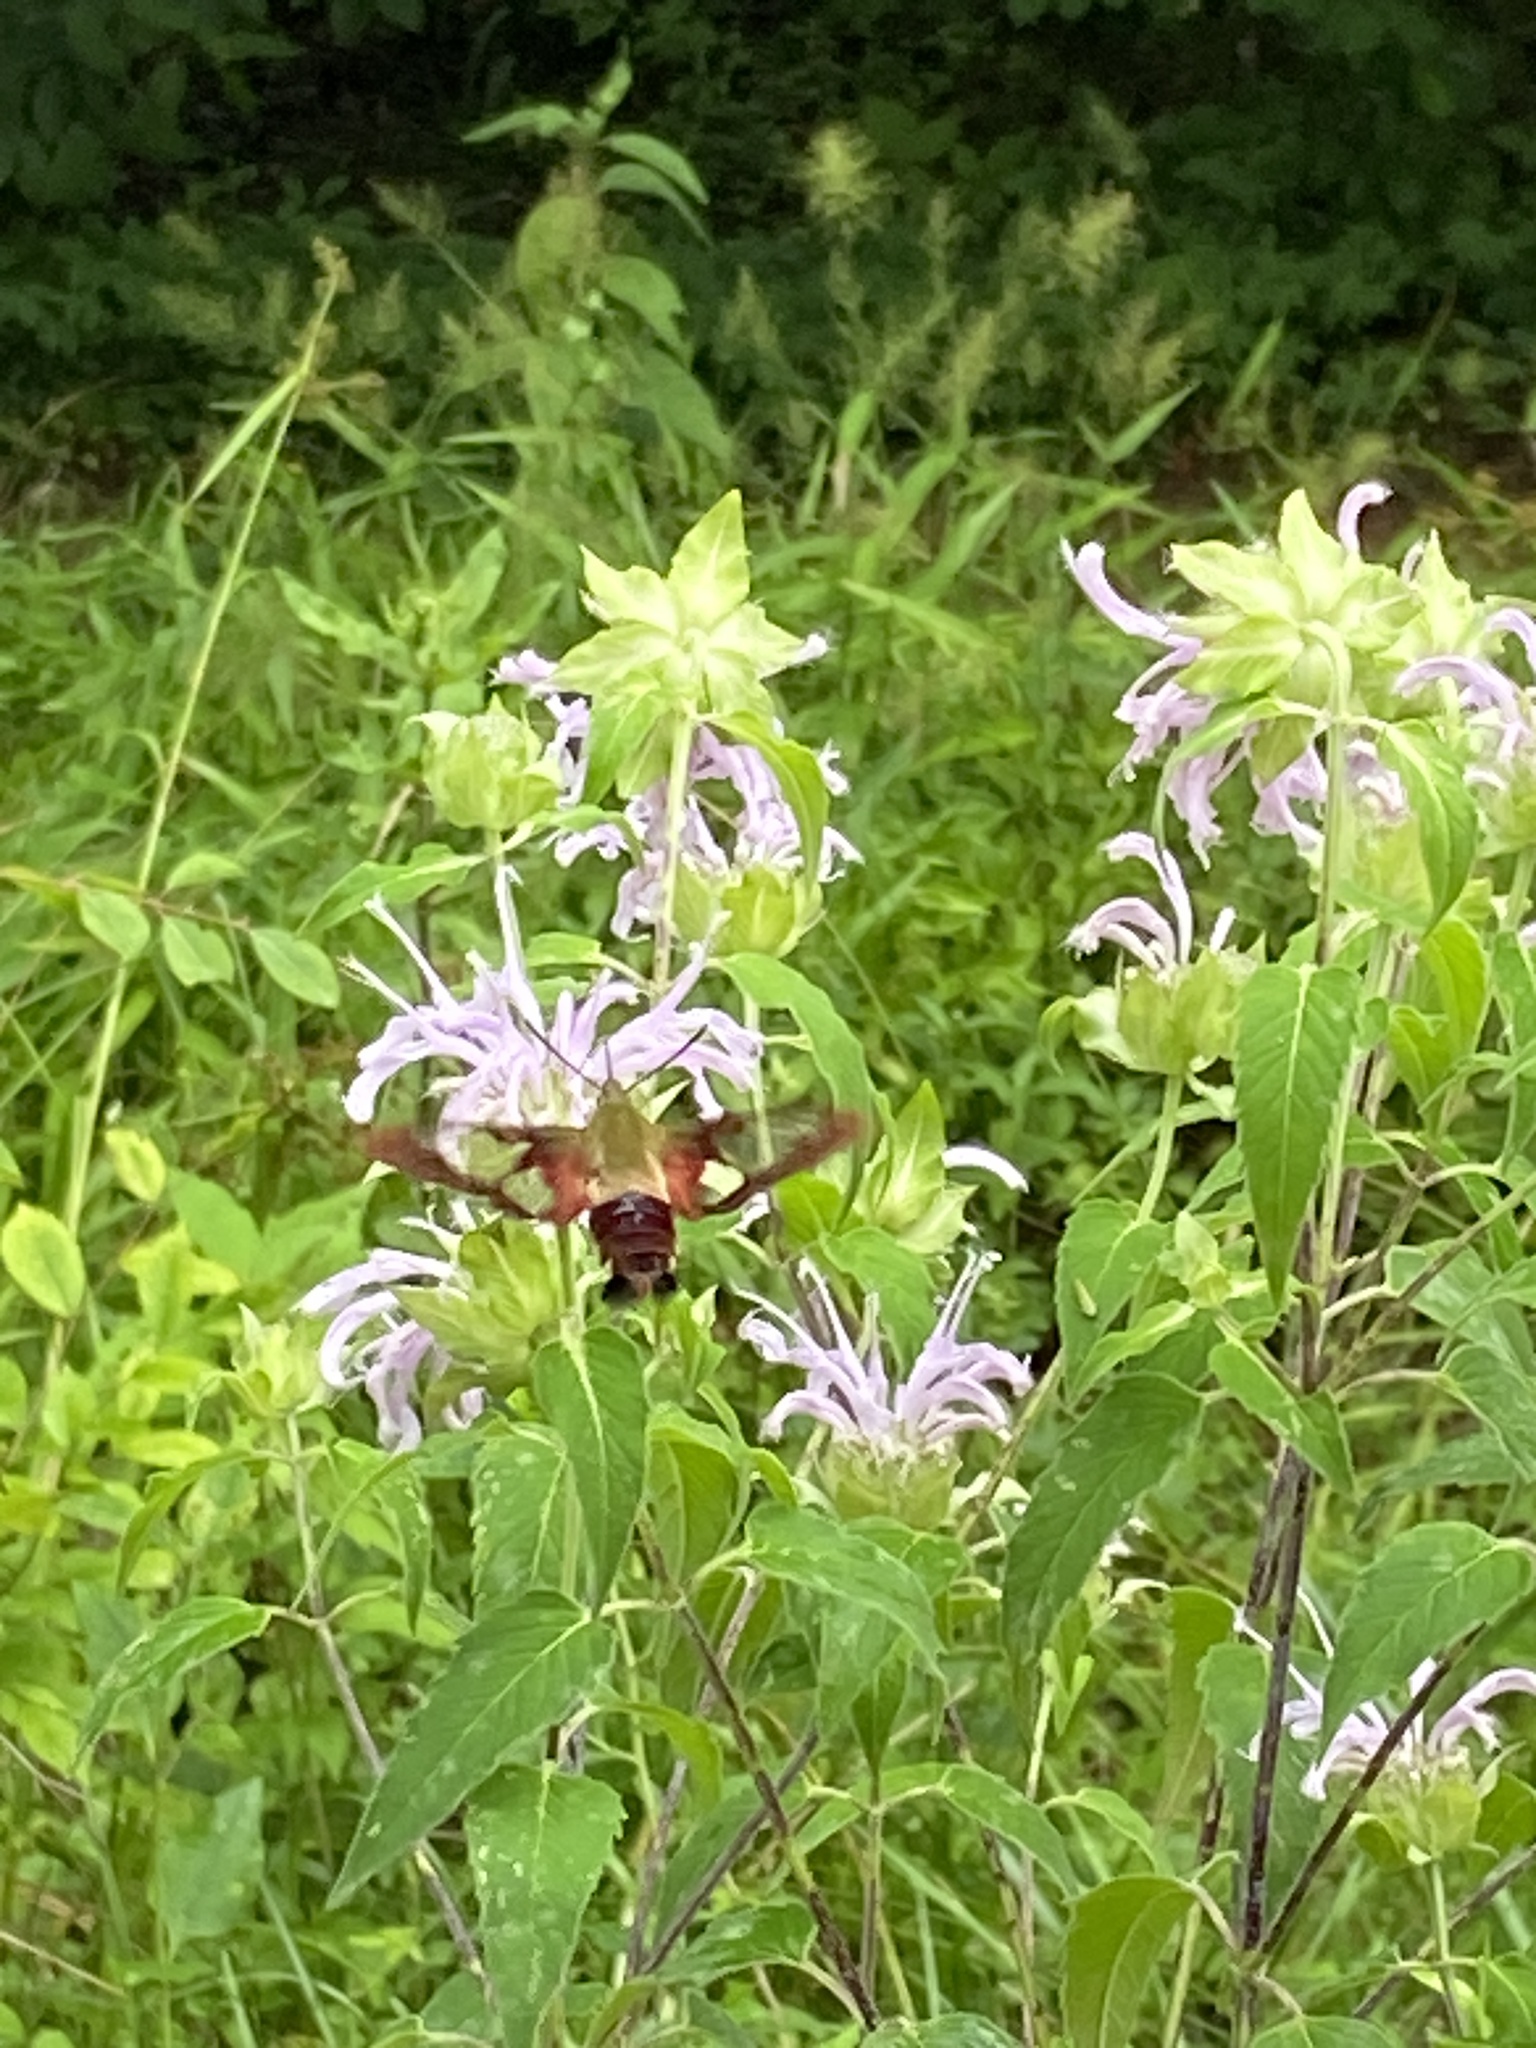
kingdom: Animalia
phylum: Arthropoda
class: Insecta
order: Lepidoptera
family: Sphingidae
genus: Hemaris
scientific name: Hemaris thysbe
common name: Common clear-wing
